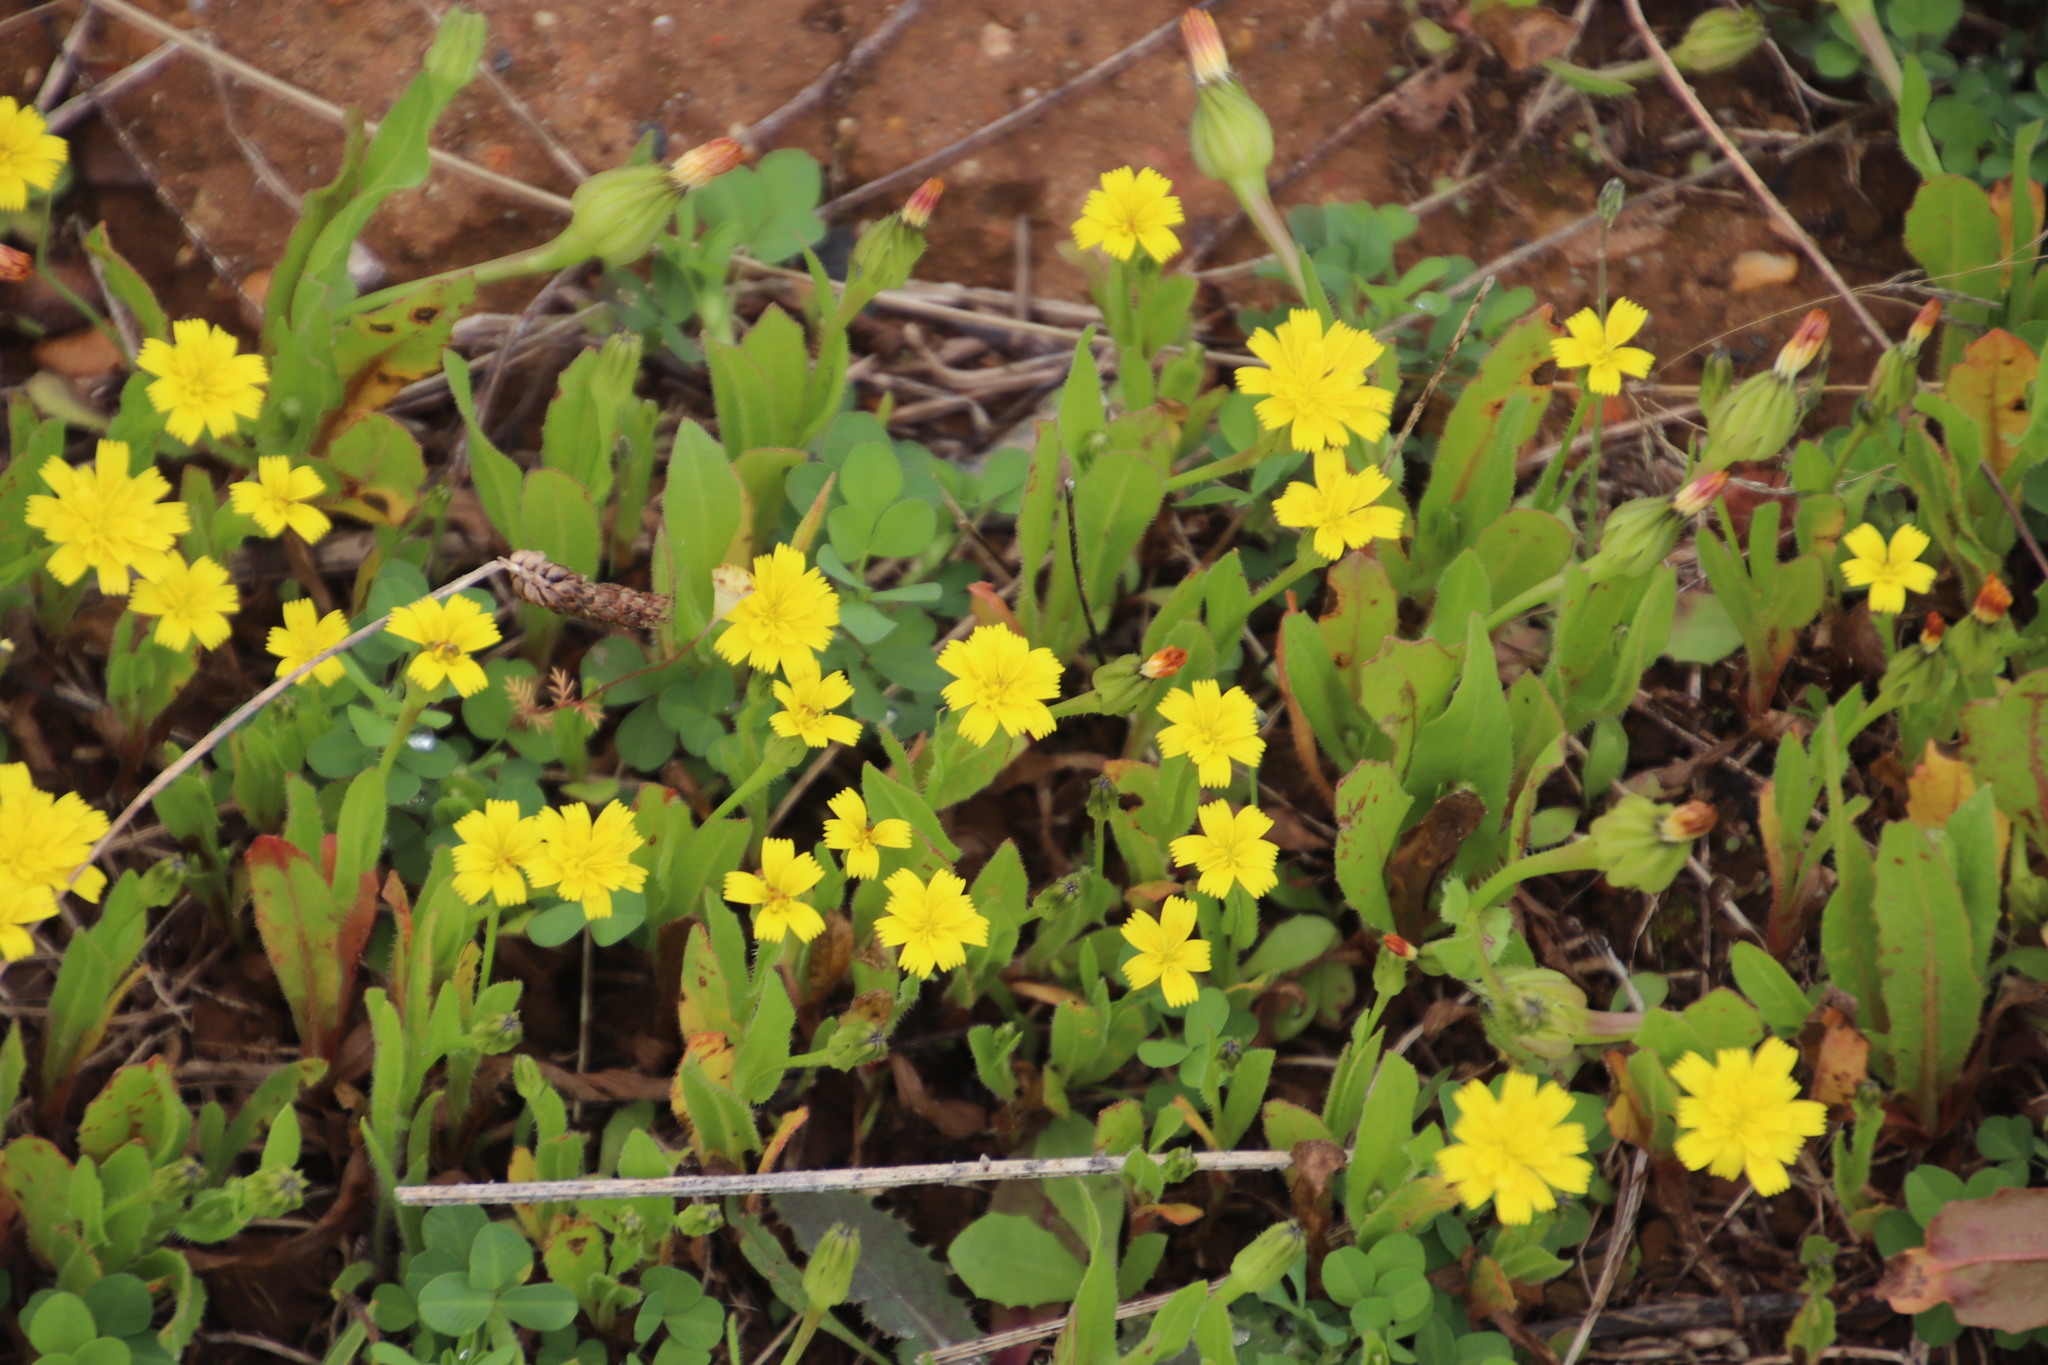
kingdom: Plantae
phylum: Tracheophyta
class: Magnoliopsida
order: Asterales
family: Asteraceae
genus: Hedypnois
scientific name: Hedypnois rhagadioloides
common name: Cretan weed
